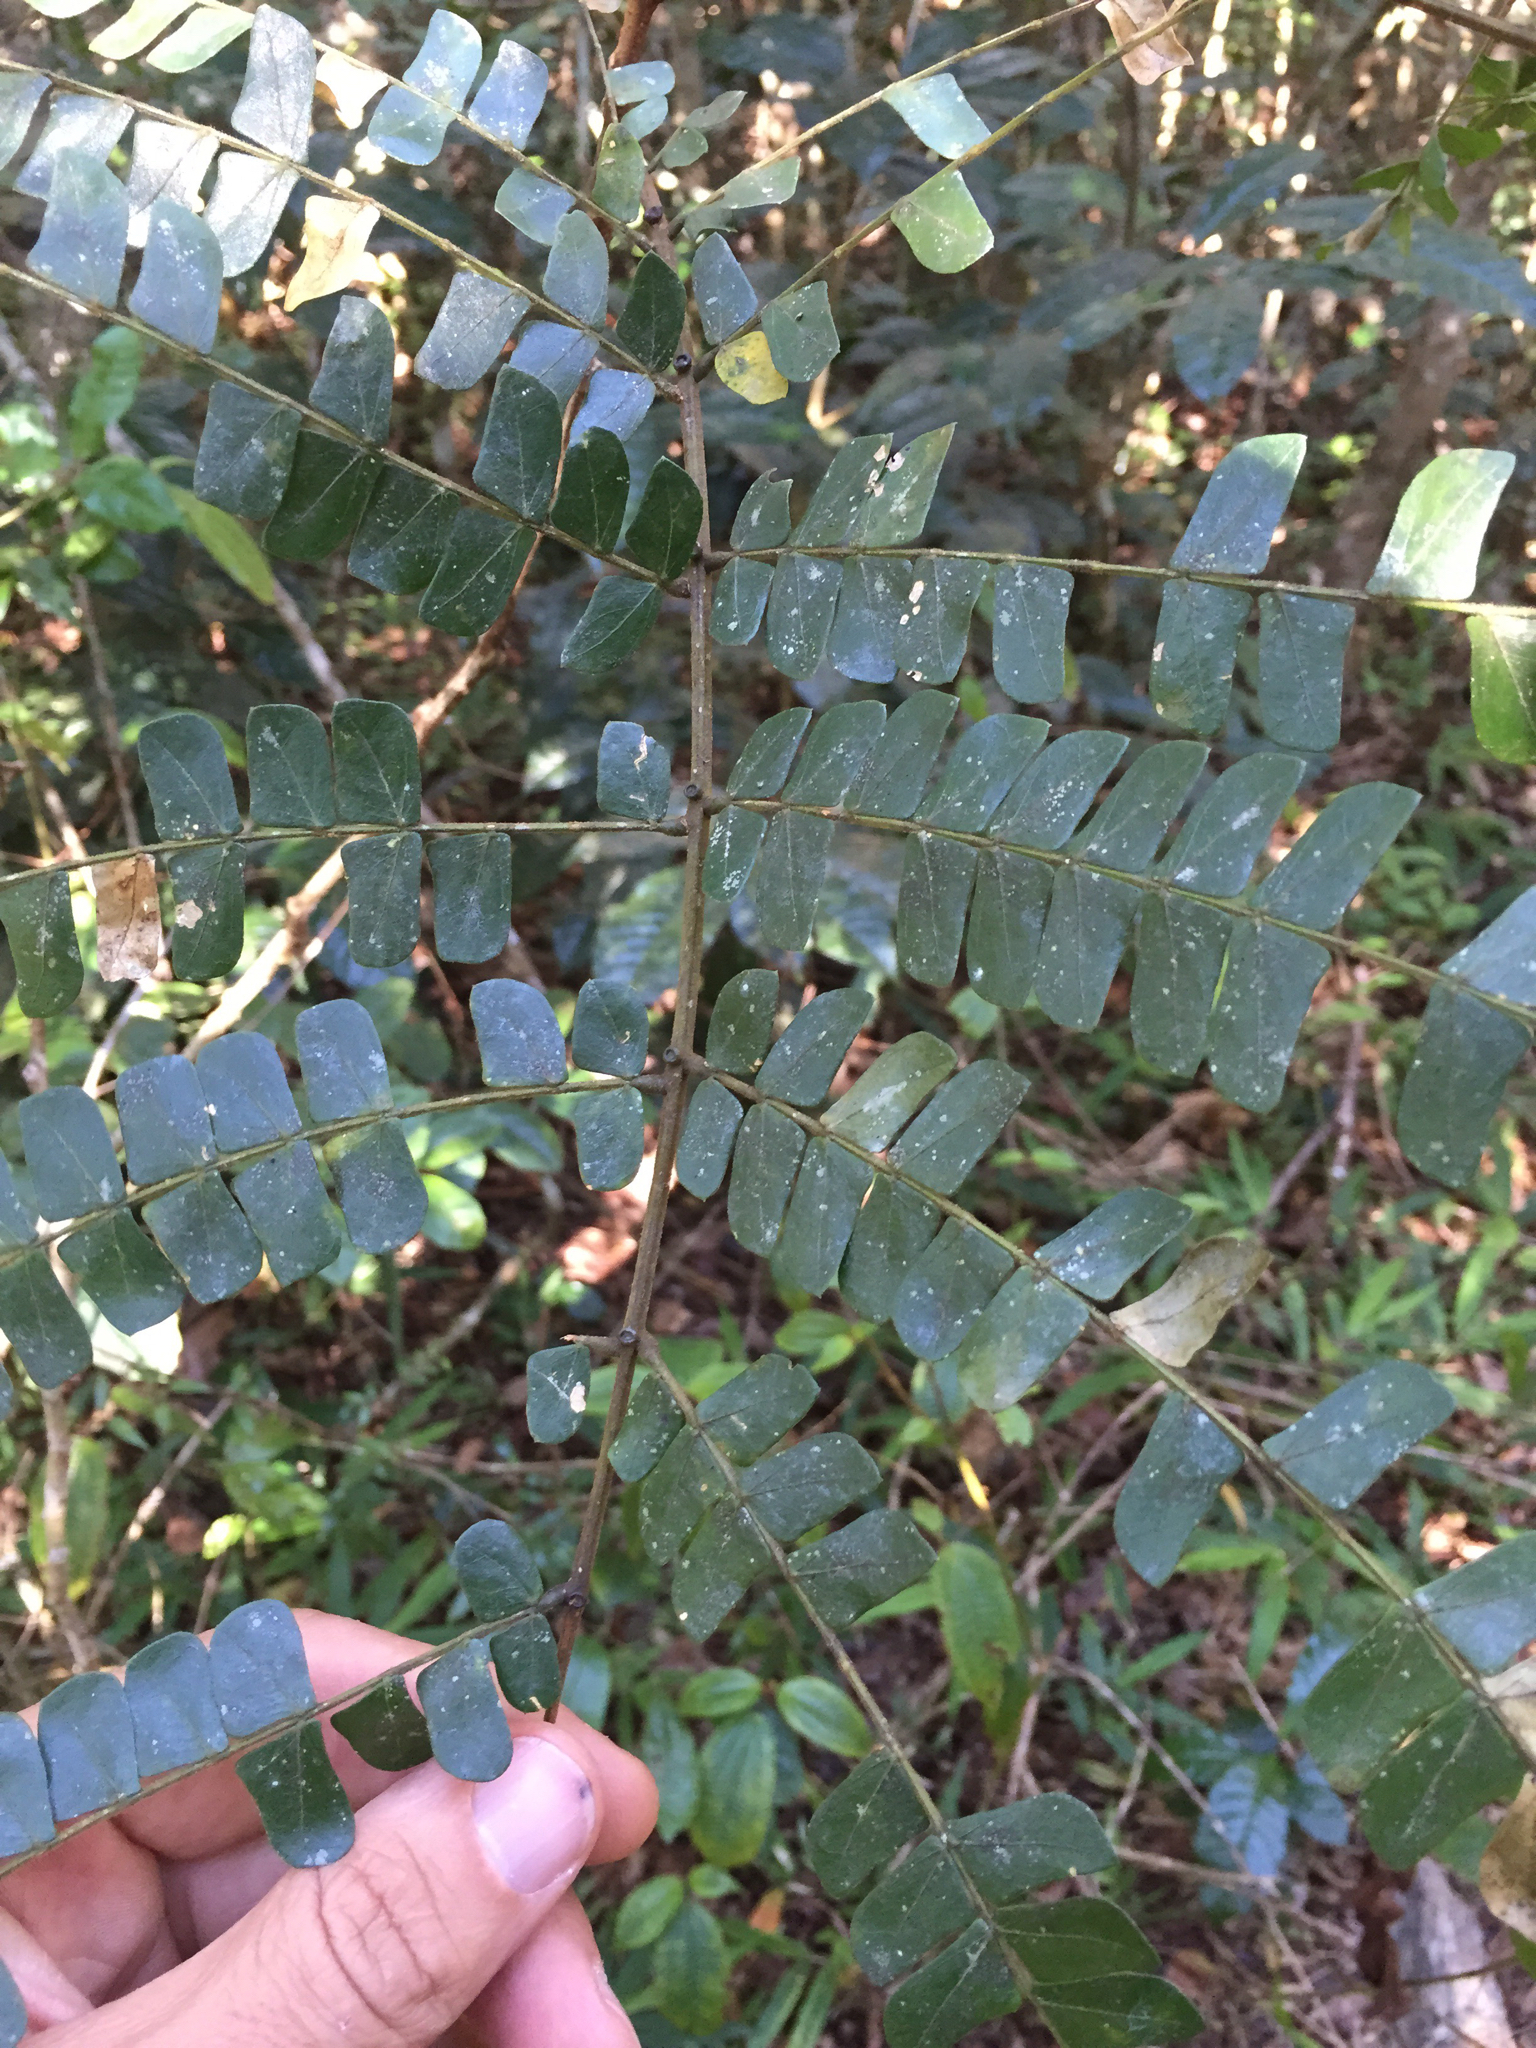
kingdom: Plantae
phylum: Tracheophyta
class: Magnoliopsida
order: Fabales
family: Fabaceae
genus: Albizia
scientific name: Albizia adianthifolia
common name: West african albizia
